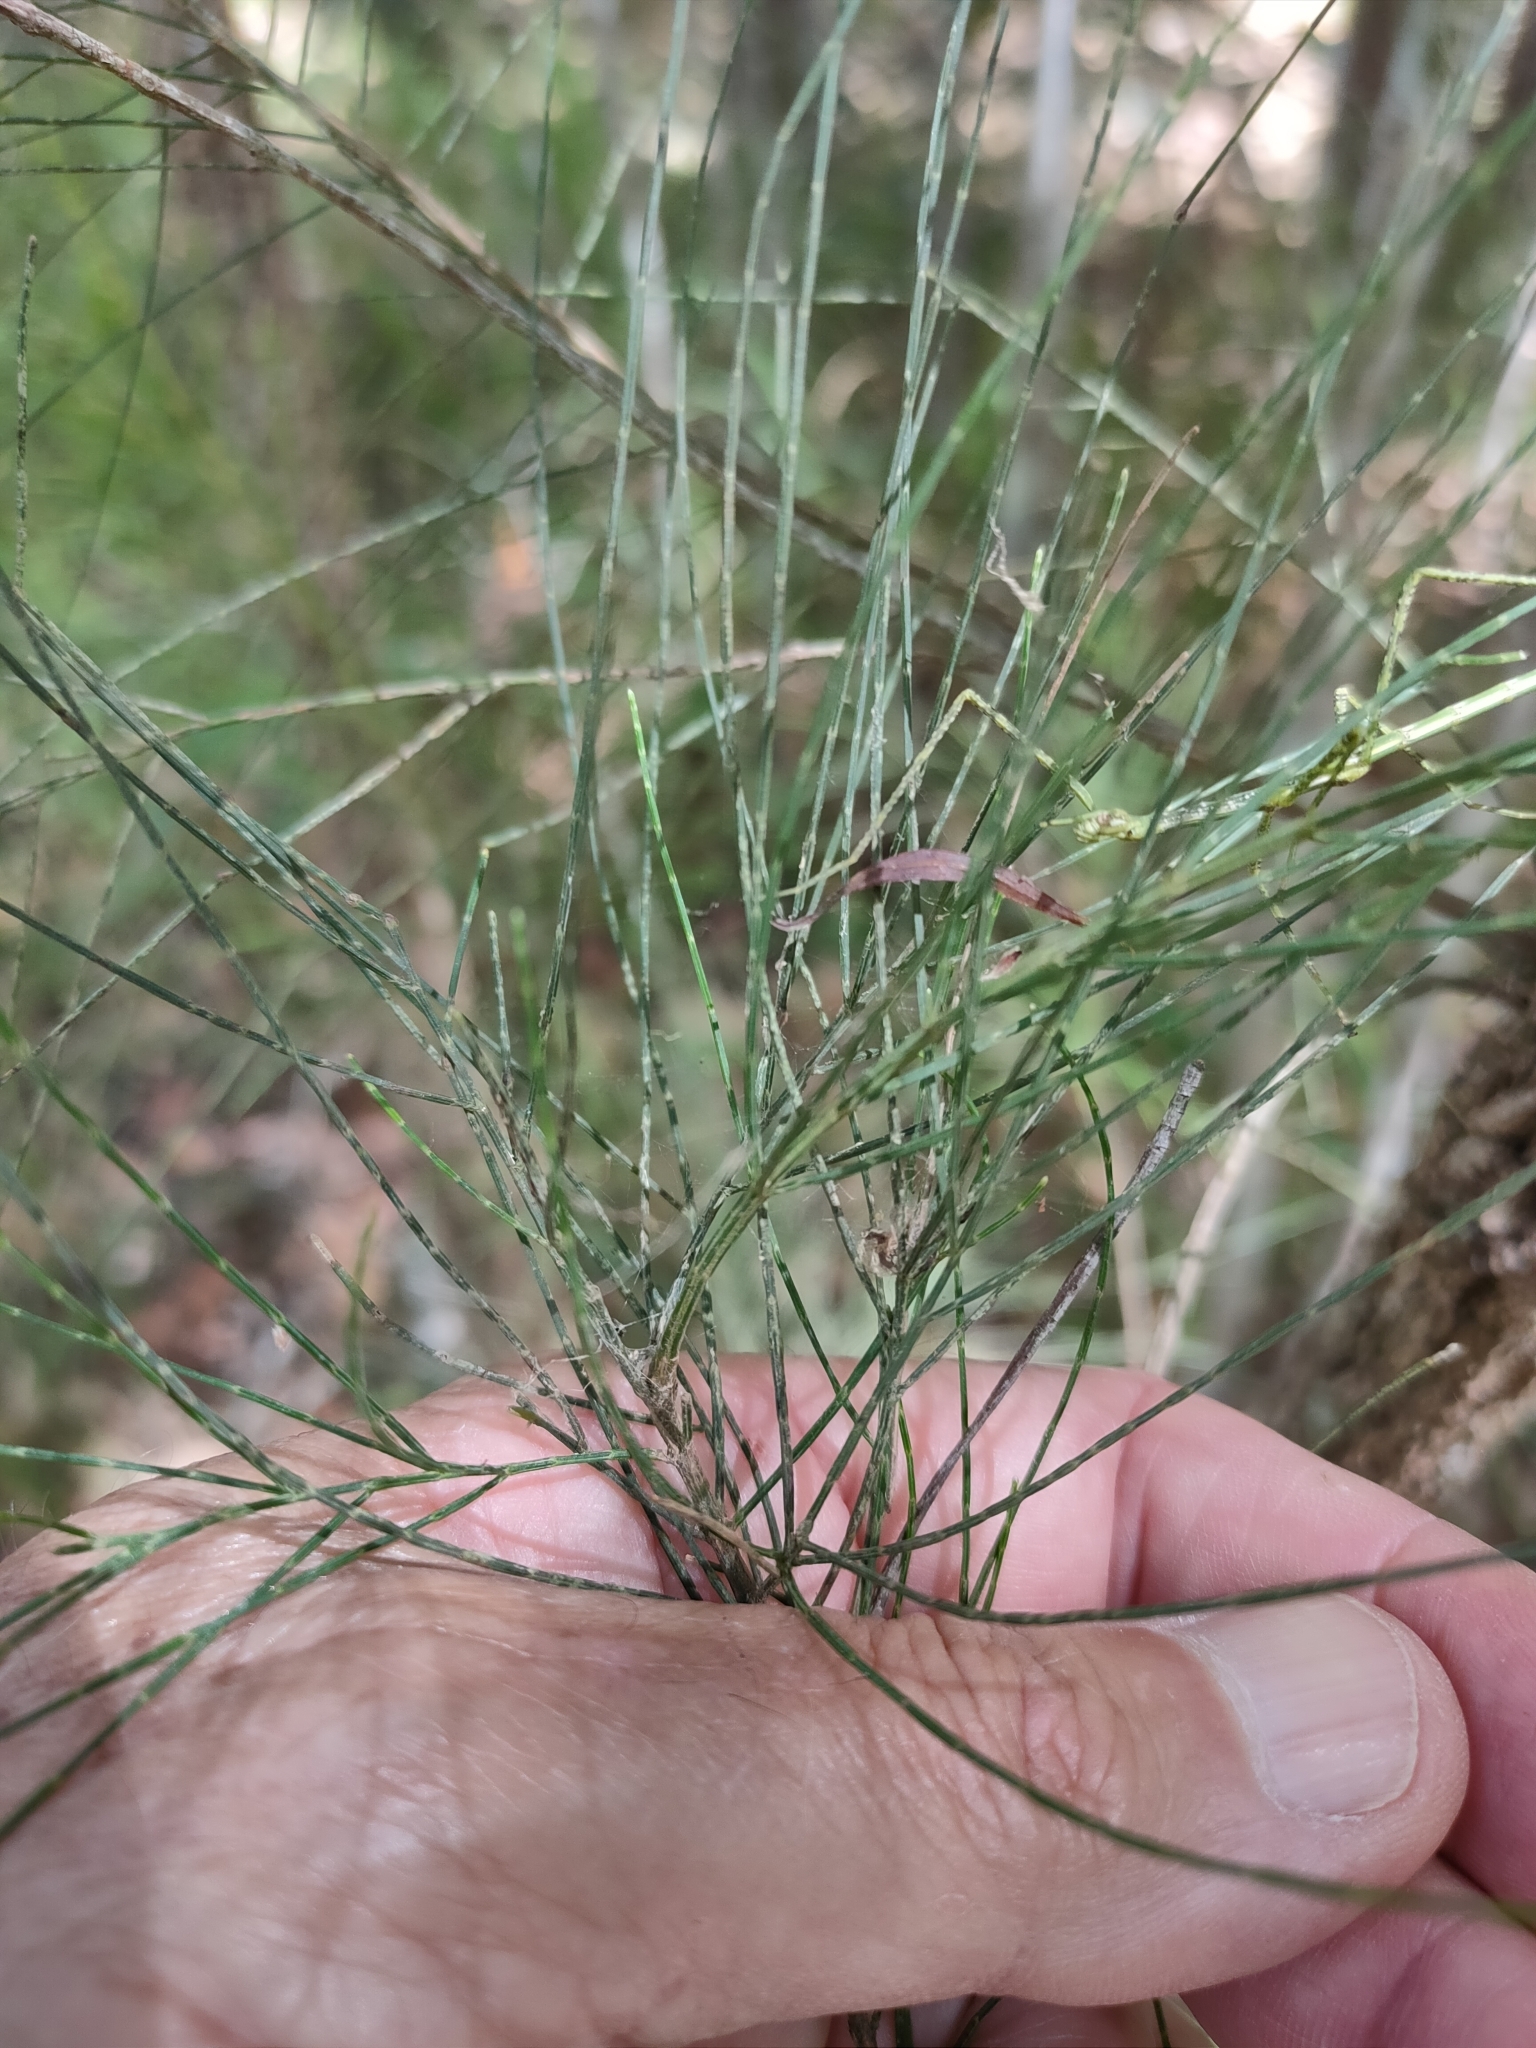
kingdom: Plantae
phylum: Tracheophyta
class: Magnoliopsida
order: Fagales
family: Casuarinaceae
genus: Allocasuarina
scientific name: Allocasuarina torulosa
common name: Forest-oak
